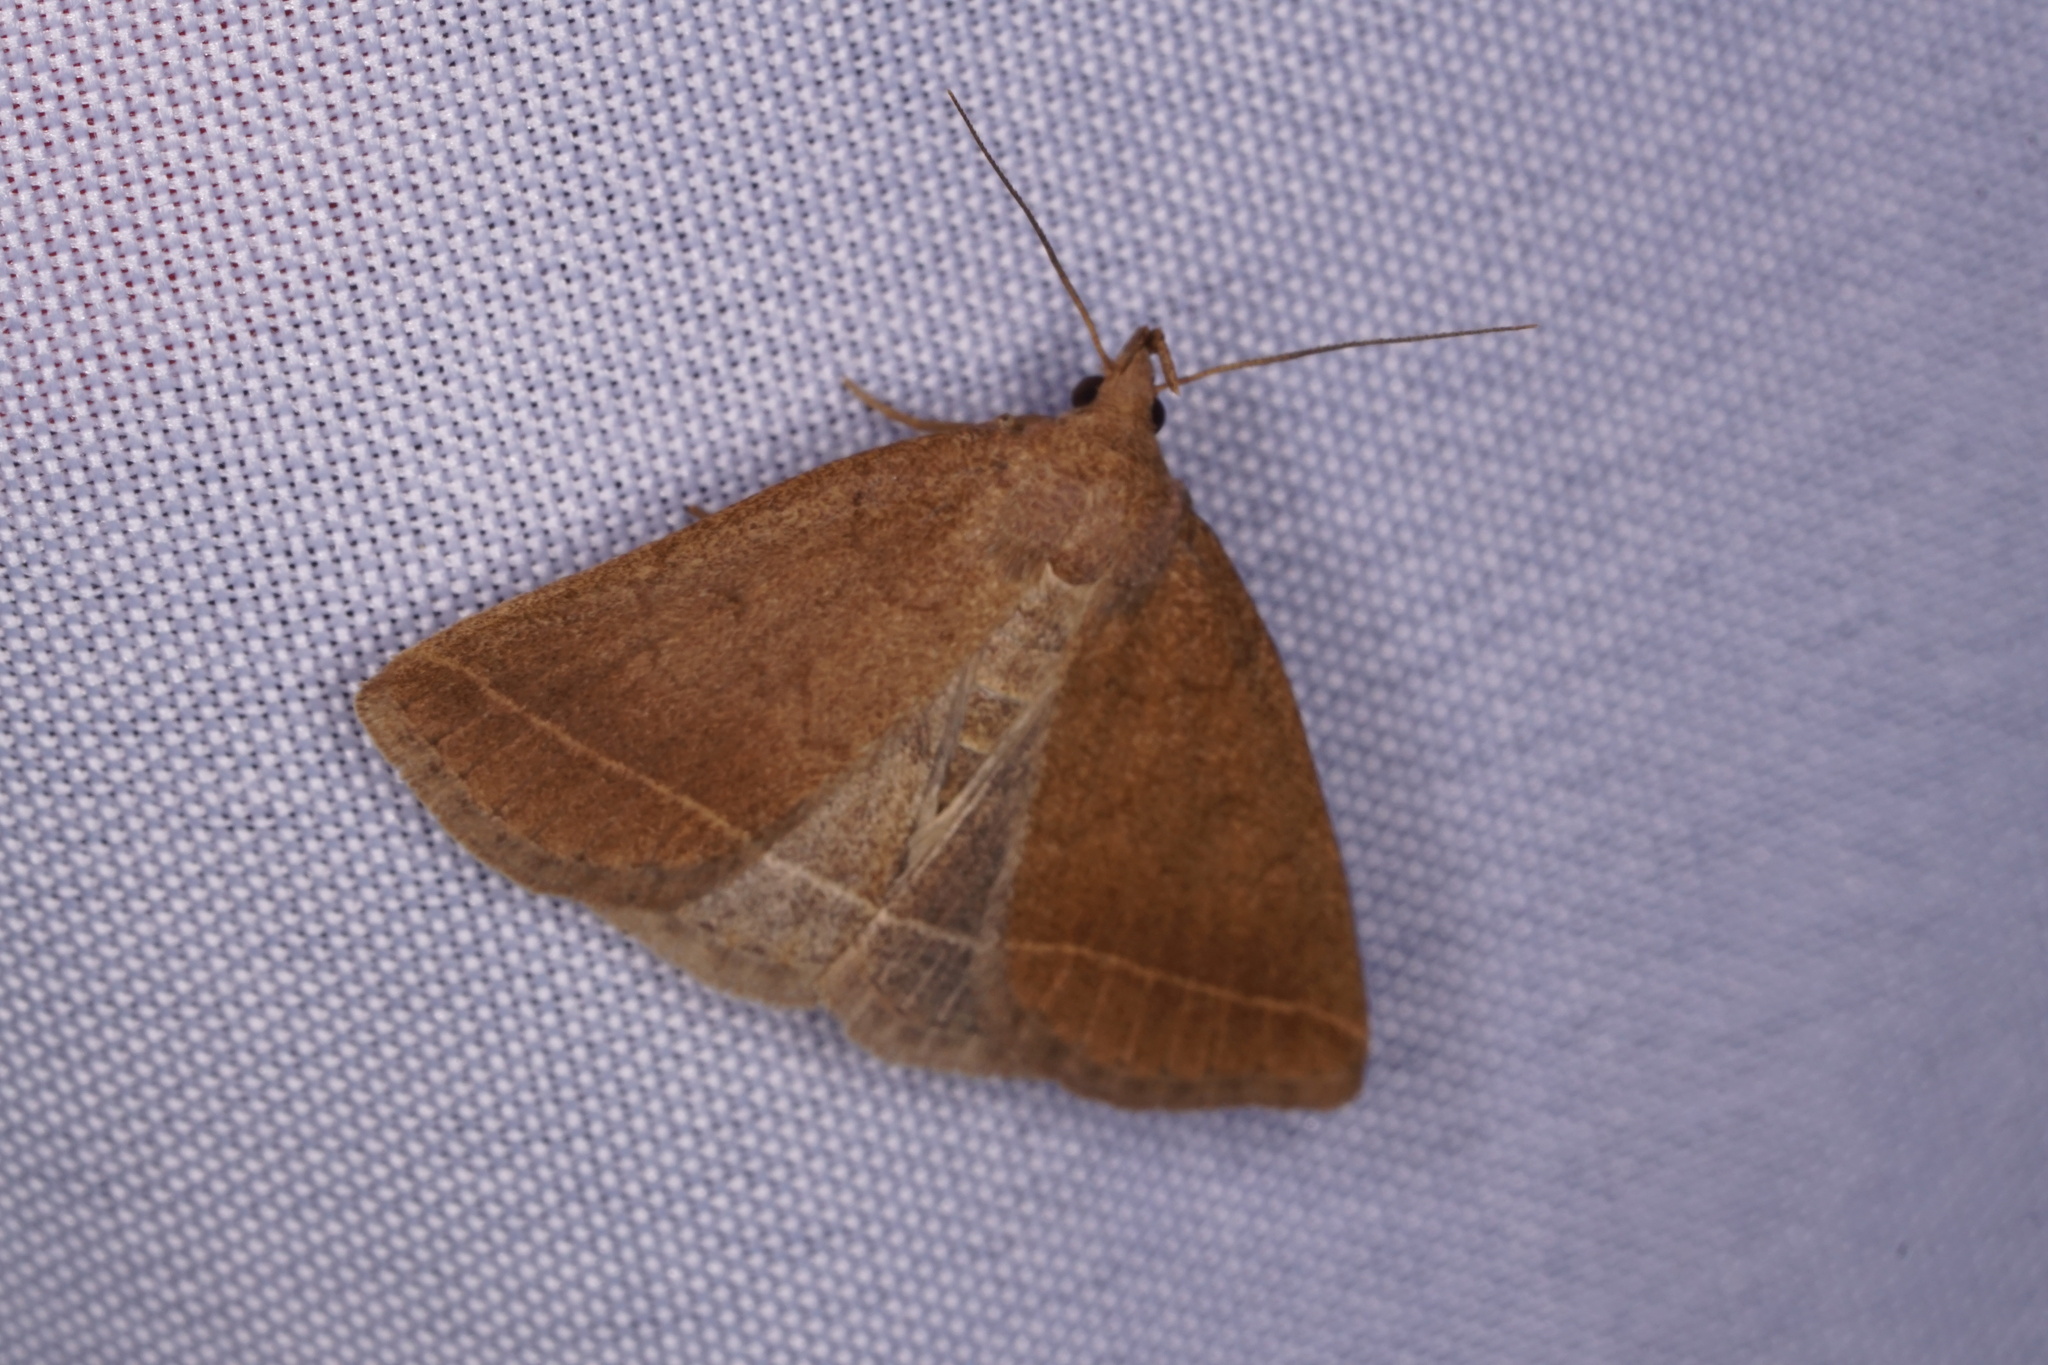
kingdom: Animalia
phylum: Arthropoda
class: Insecta
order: Lepidoptera
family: Erebidae
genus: Zanclognatha
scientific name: Zanclognatha jacchusalis
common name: Yellowish zanclognatha
